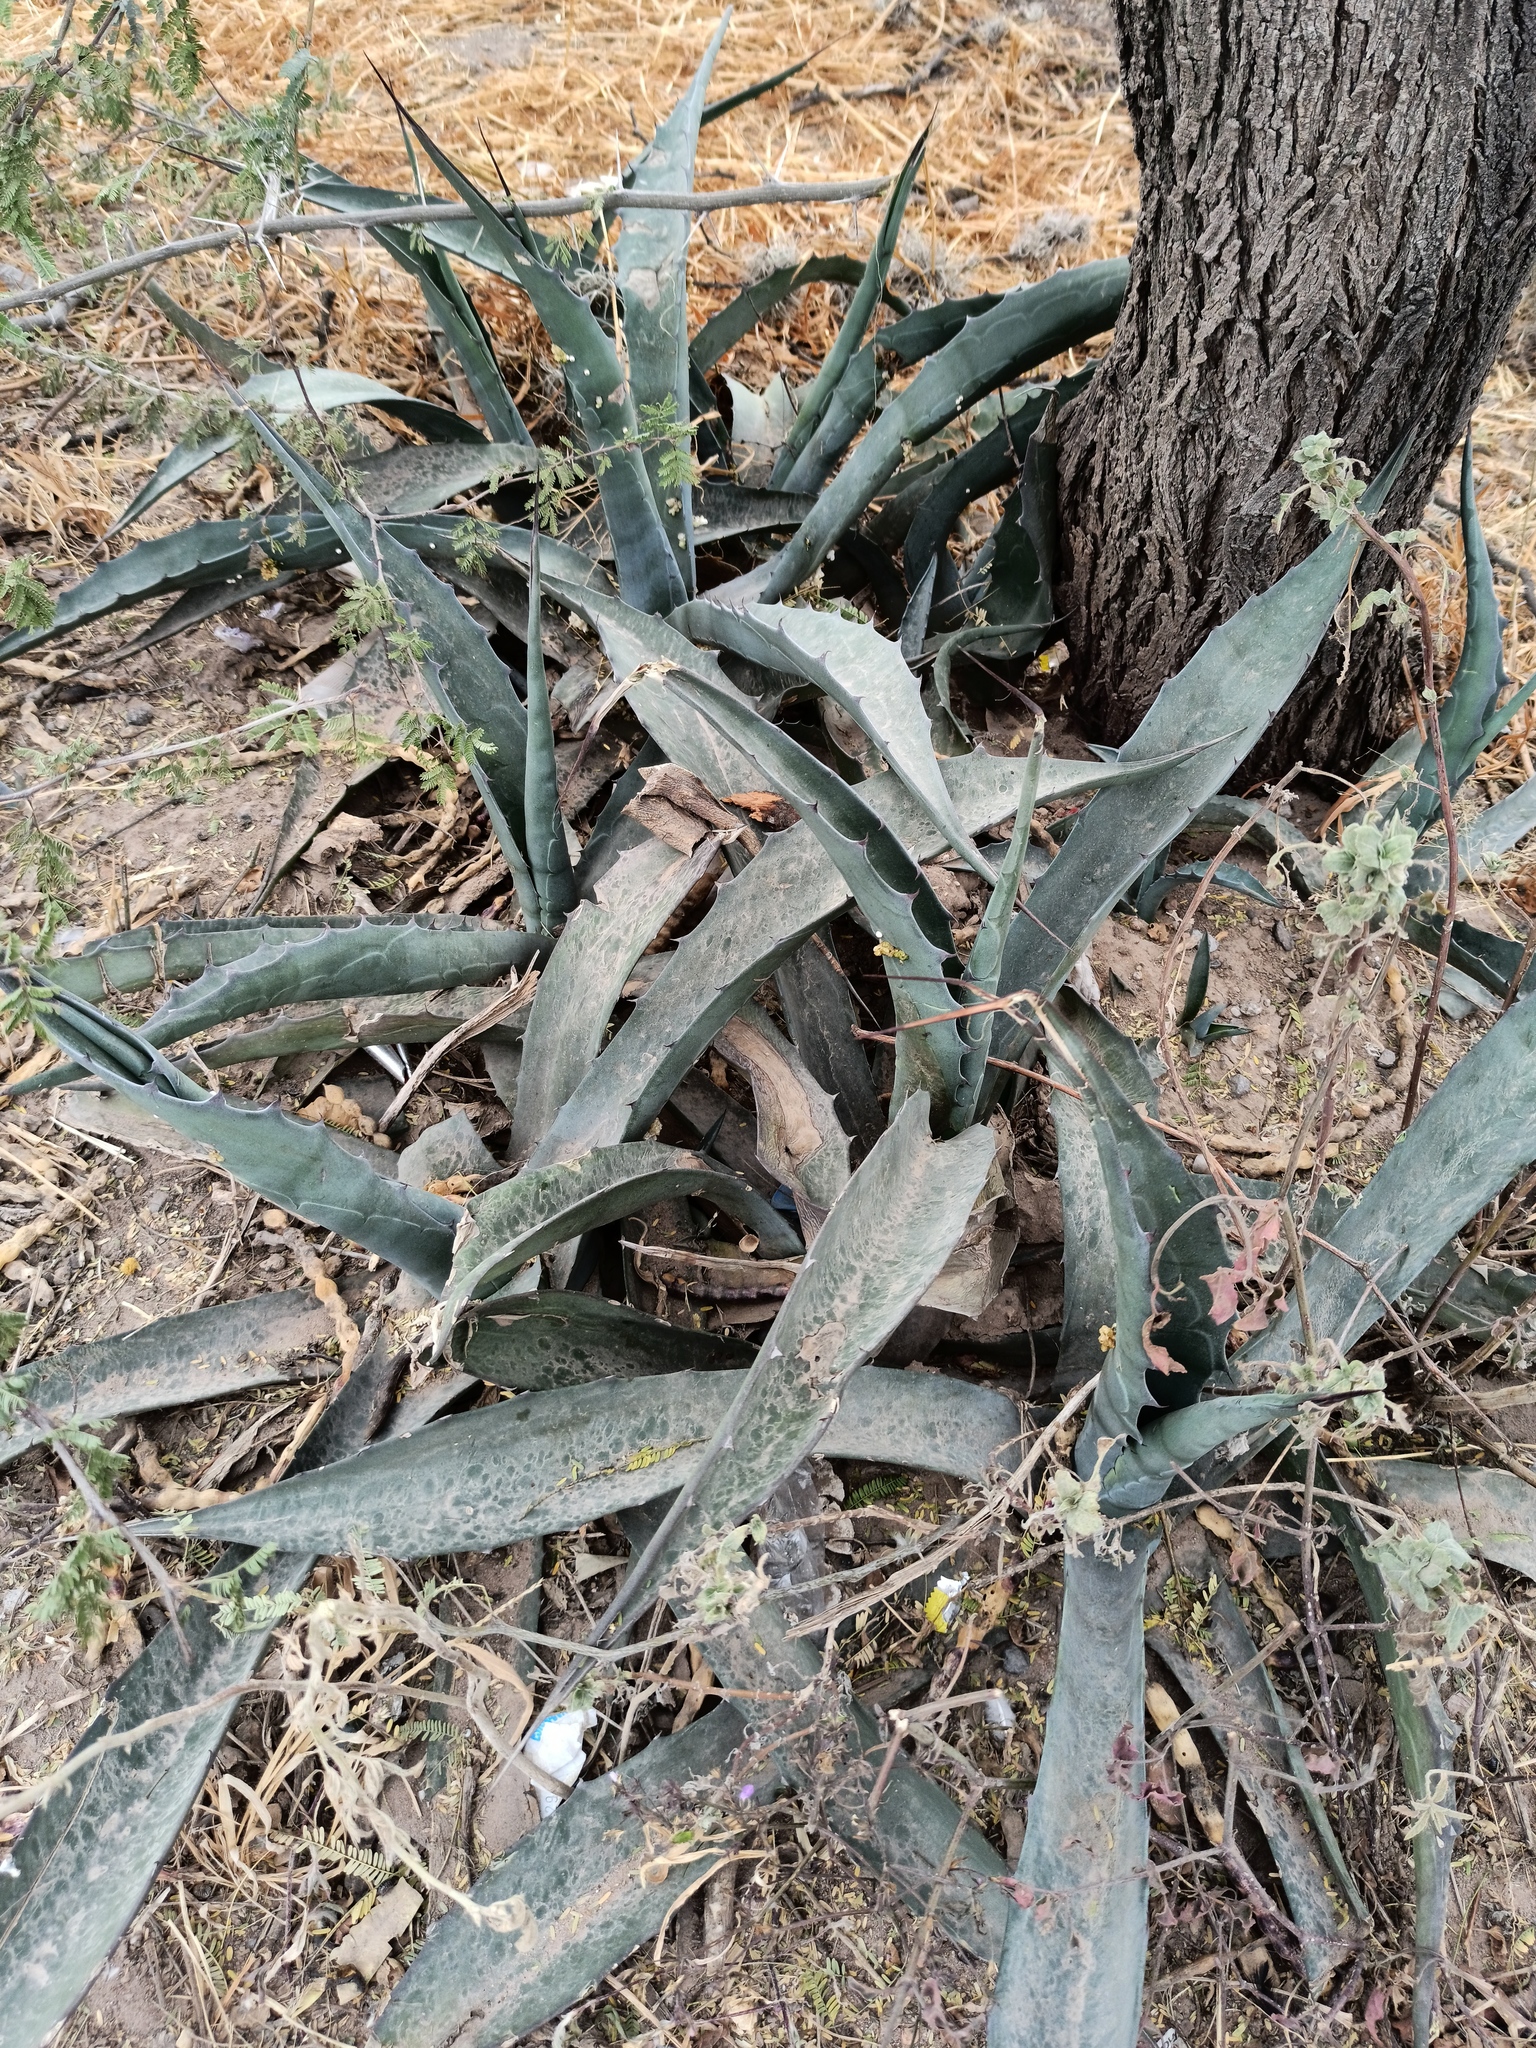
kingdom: Plantae
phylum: Tracheophyta
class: Liliopsida
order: Asparagales
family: Asparagaceae
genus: Agave
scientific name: Agave americana
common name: Centuryplant
